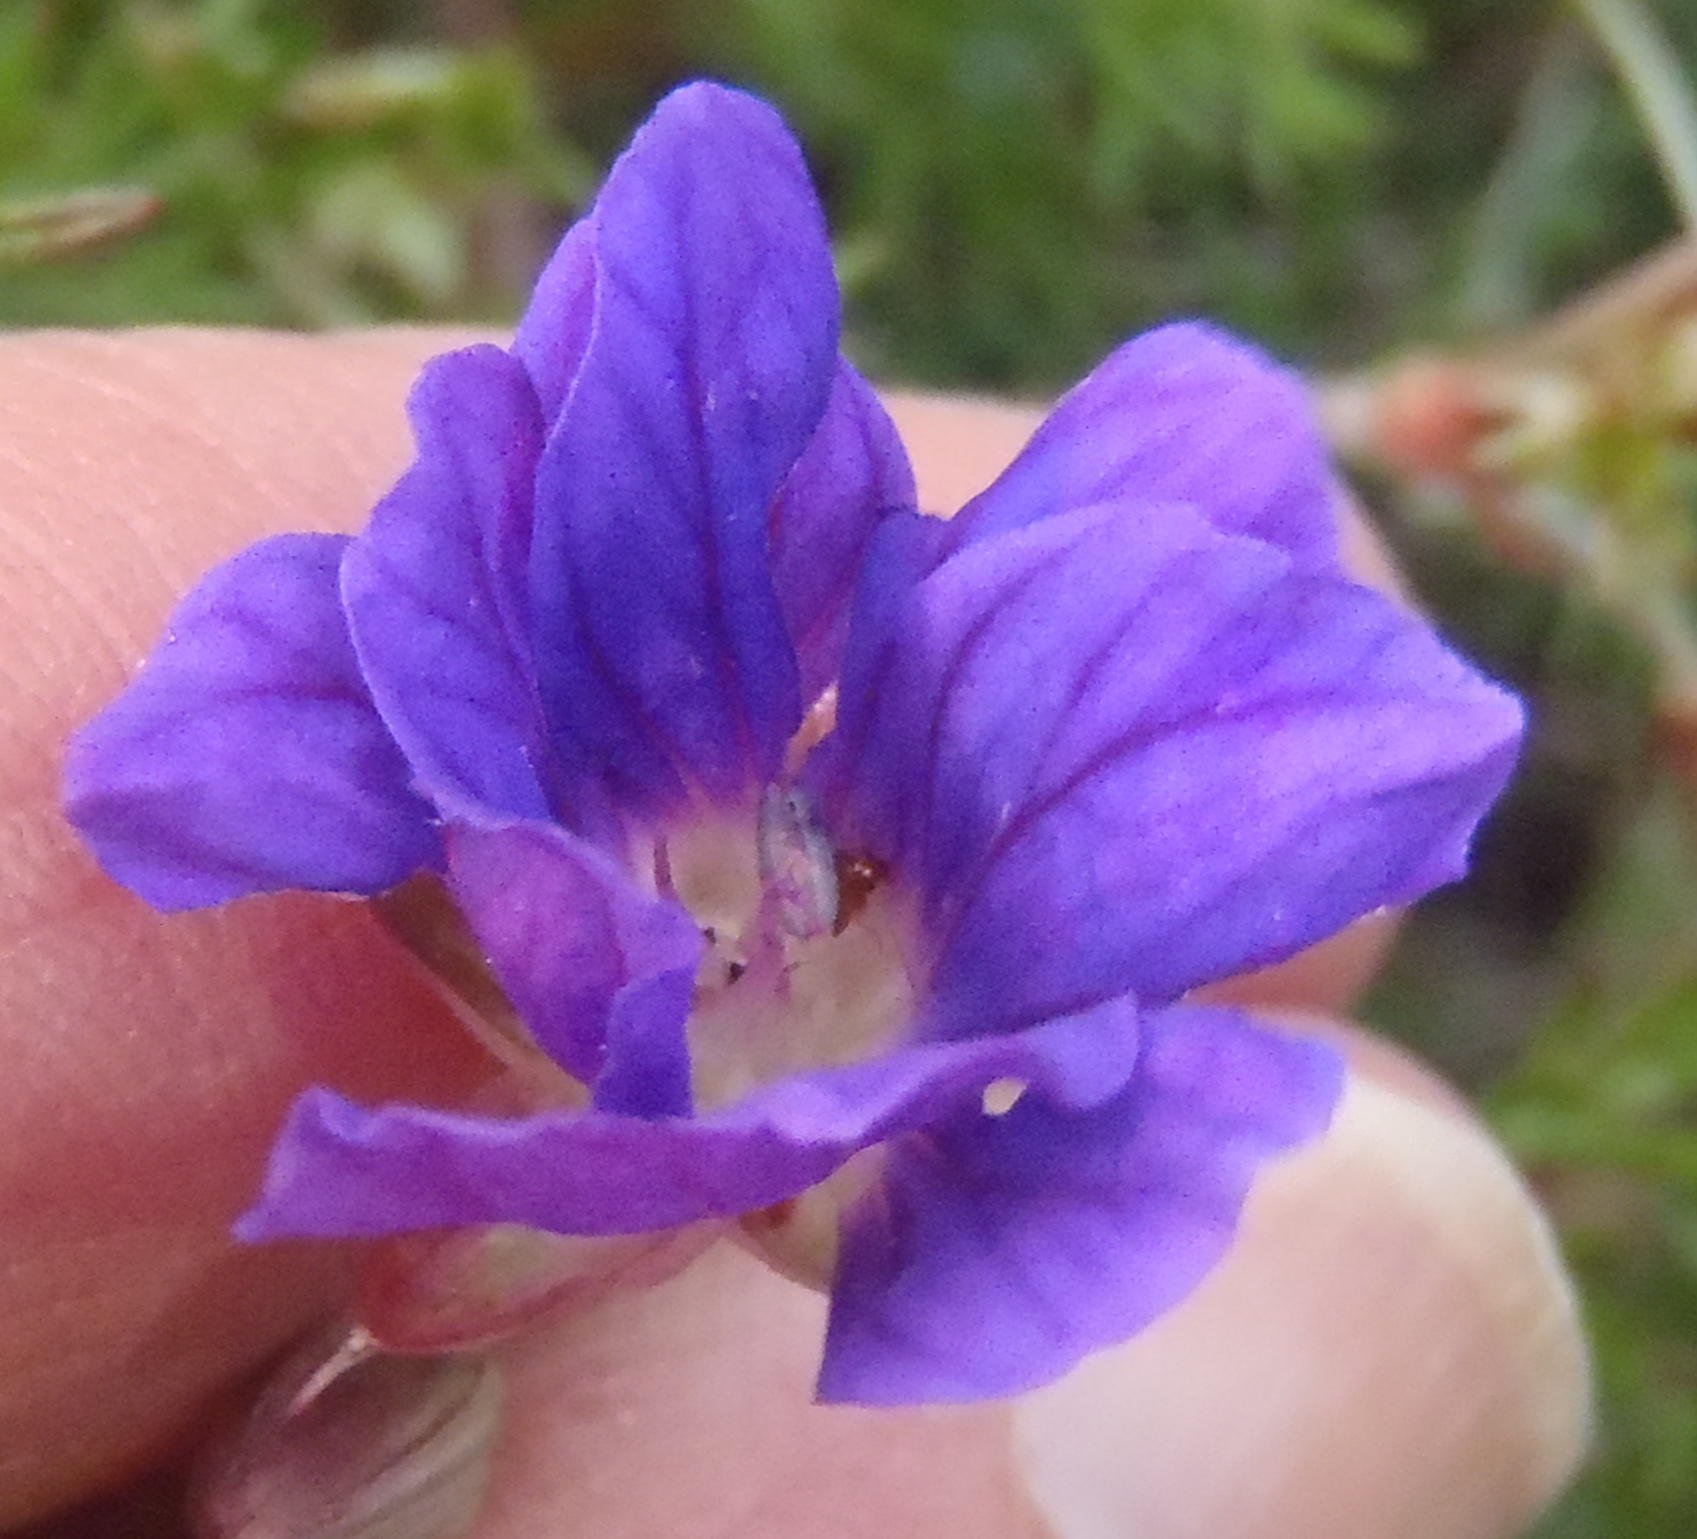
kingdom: Plantae
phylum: Tracheophyta
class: Magnoliopsida
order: Geraniales
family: Geraniaceae
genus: Geranium
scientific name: Geranium incanum
